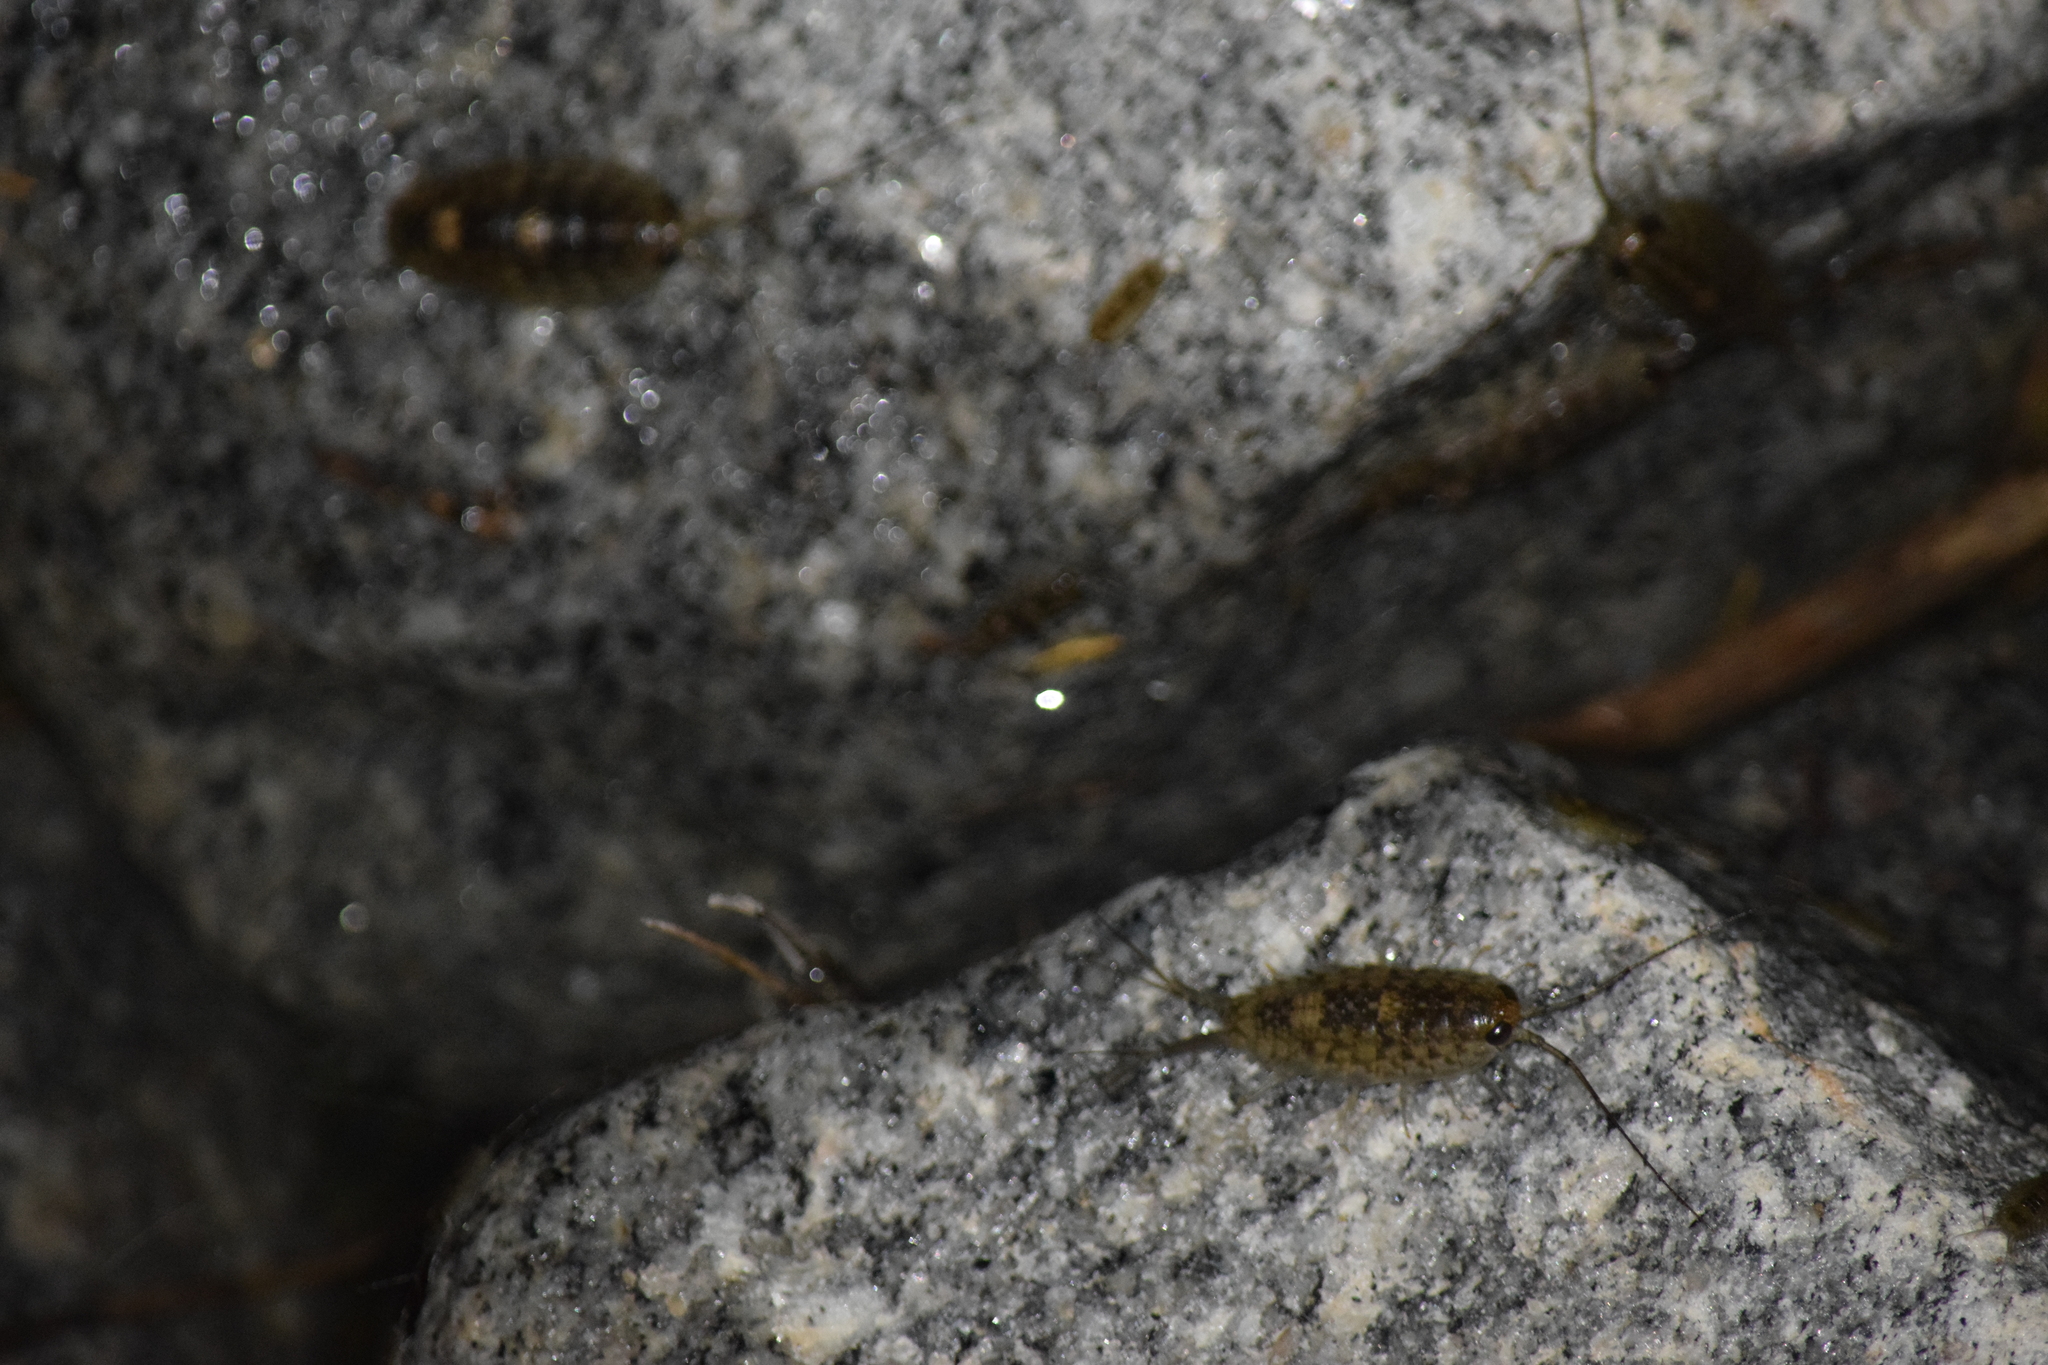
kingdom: Animalia
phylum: Arthropoda
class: Malacostraca
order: Isopoda
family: Ligiidae
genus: Ligia
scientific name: Ligia exotica
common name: Wharf roach
